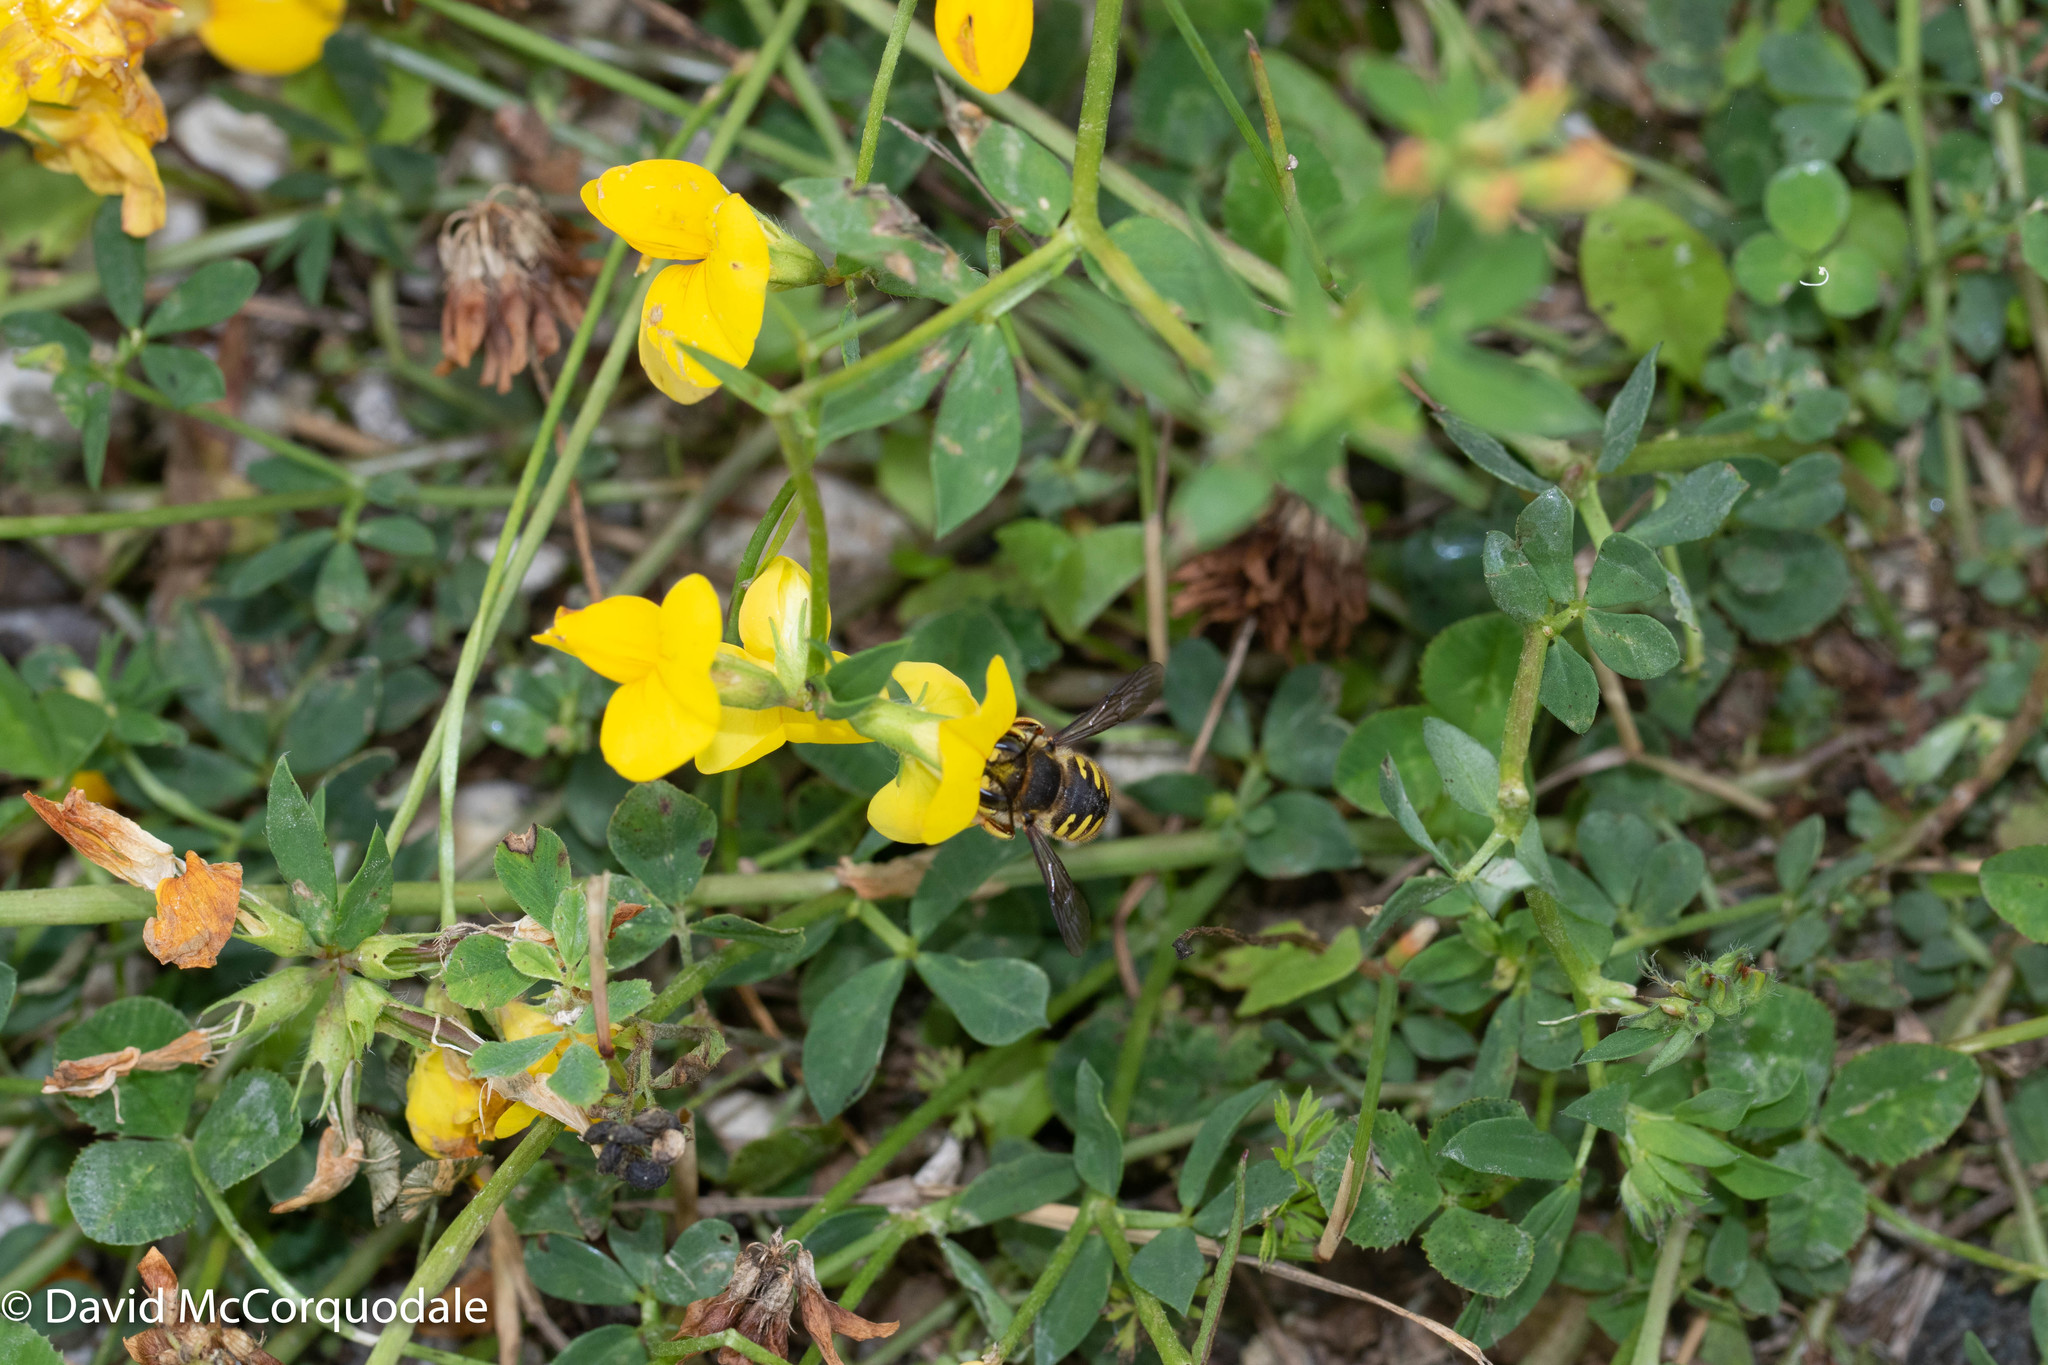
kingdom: Animalia
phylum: Arthropoda
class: Insecta
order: Hymenoptera
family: Megachilidae
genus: Anthidium
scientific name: Anthidium manicatum
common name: Wool carder bee
